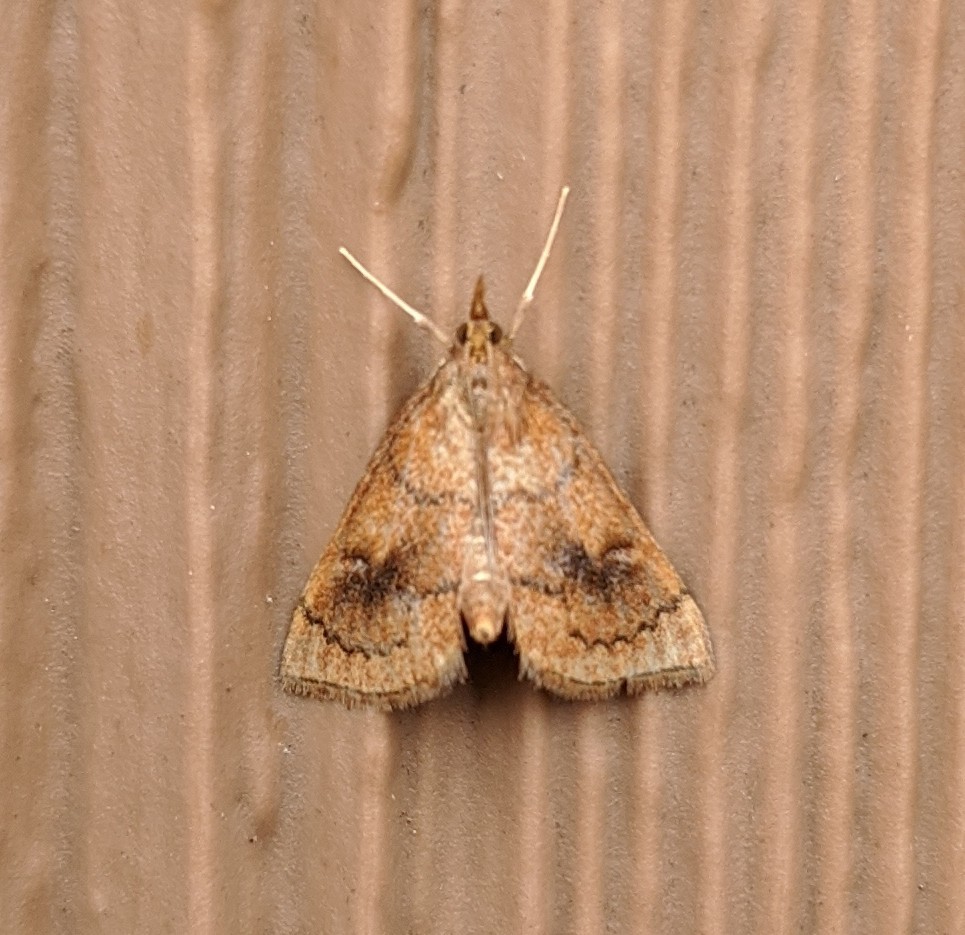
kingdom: Animalia
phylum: Arthropoda
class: Insecta
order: Lepidoptera
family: Crambidae
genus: Fumibotys
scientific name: Fumibotys fumalis
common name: Mint root borer moth
